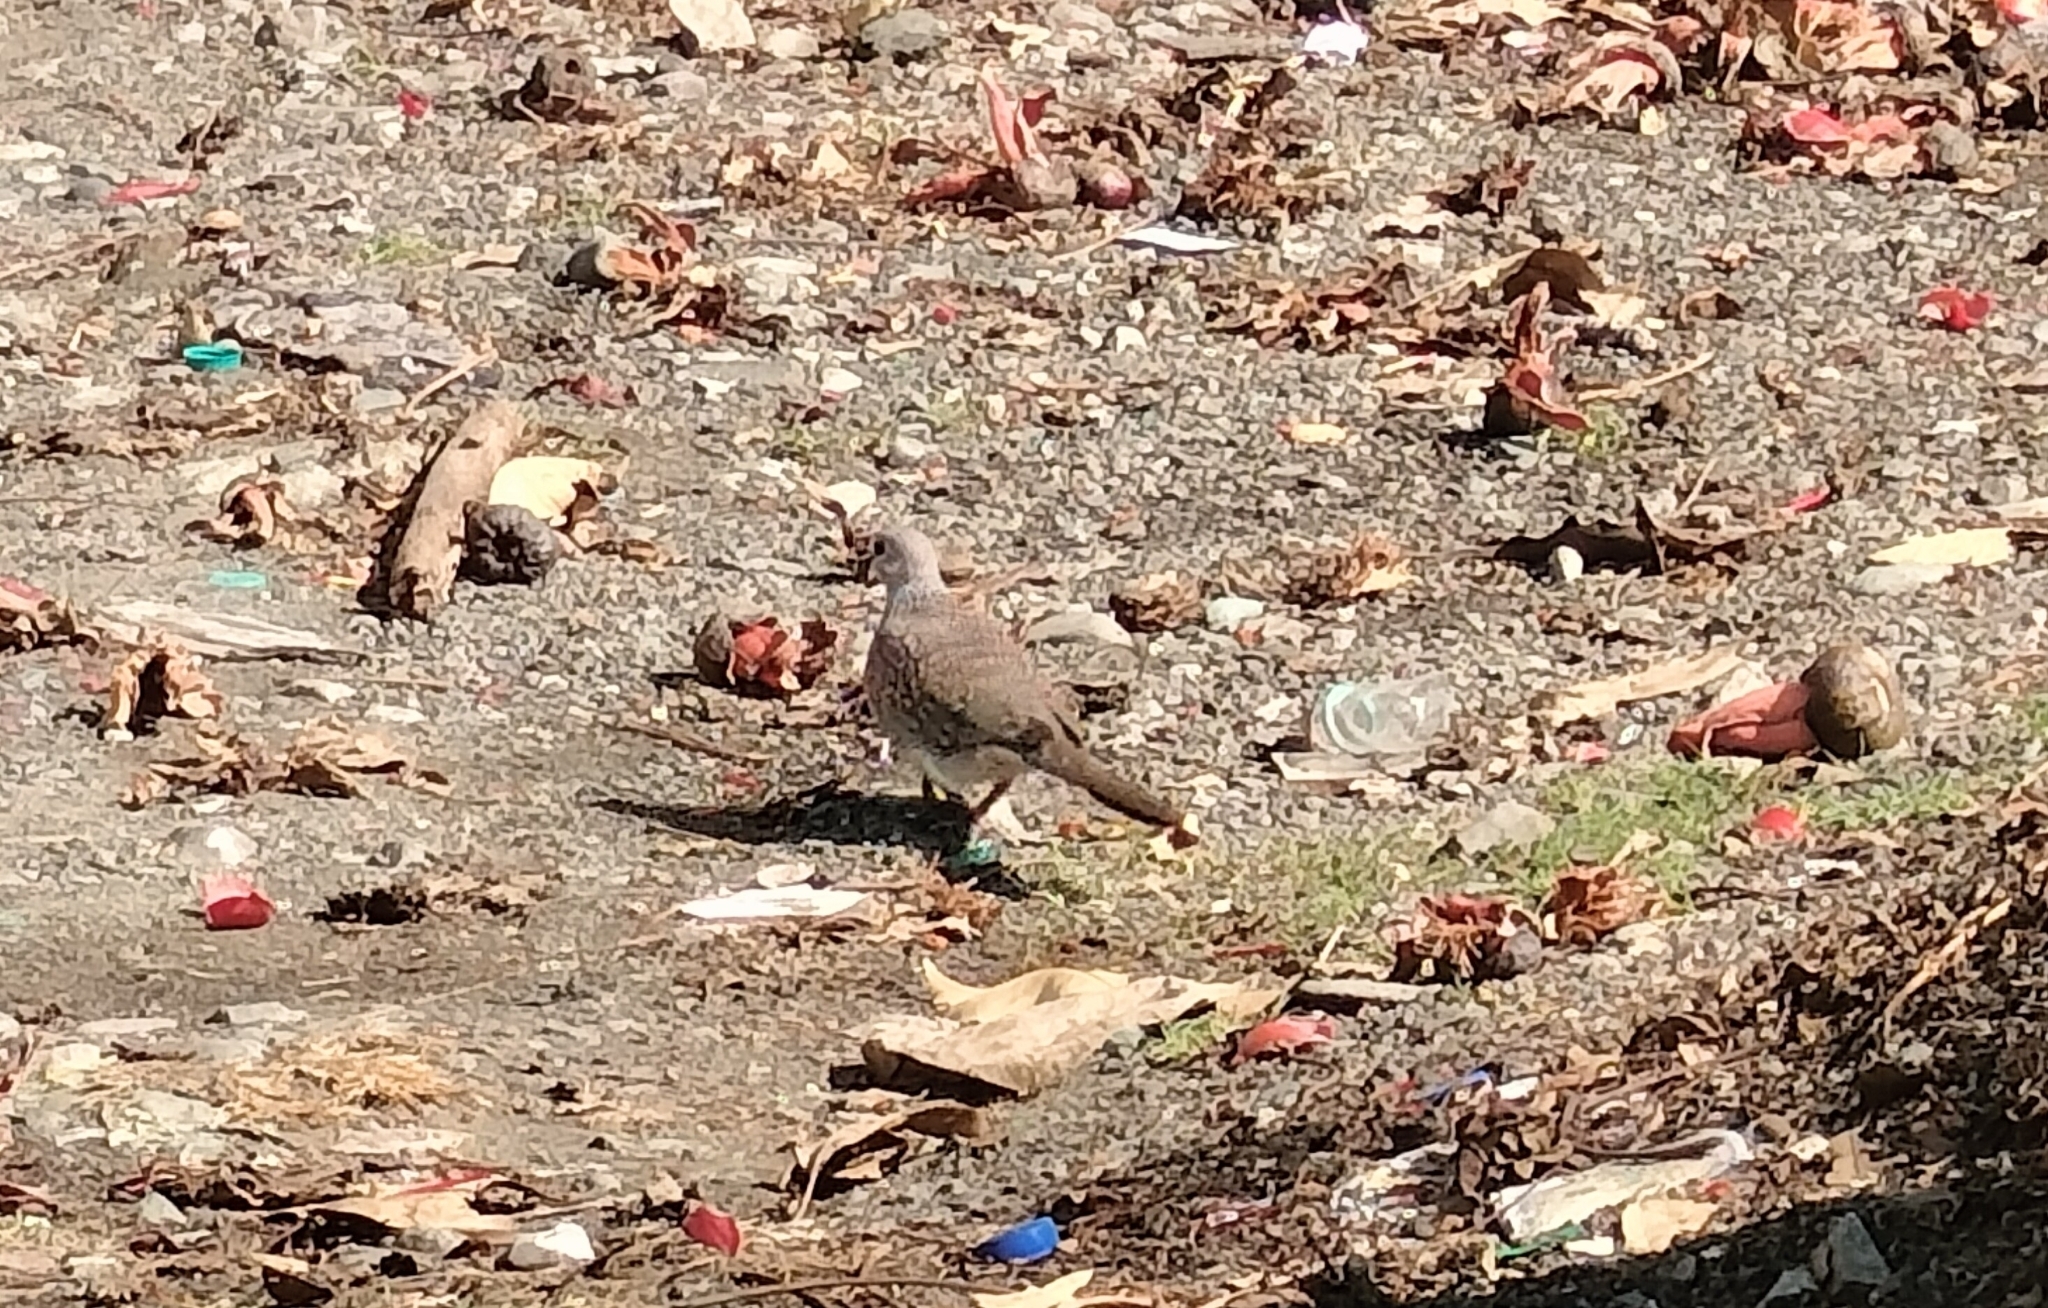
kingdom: Animalia
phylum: Chordata
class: Aves
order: Columbiformes
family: Columbidae
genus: Spilopelia
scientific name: Spilopelia chinensis
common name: Spotted dove
